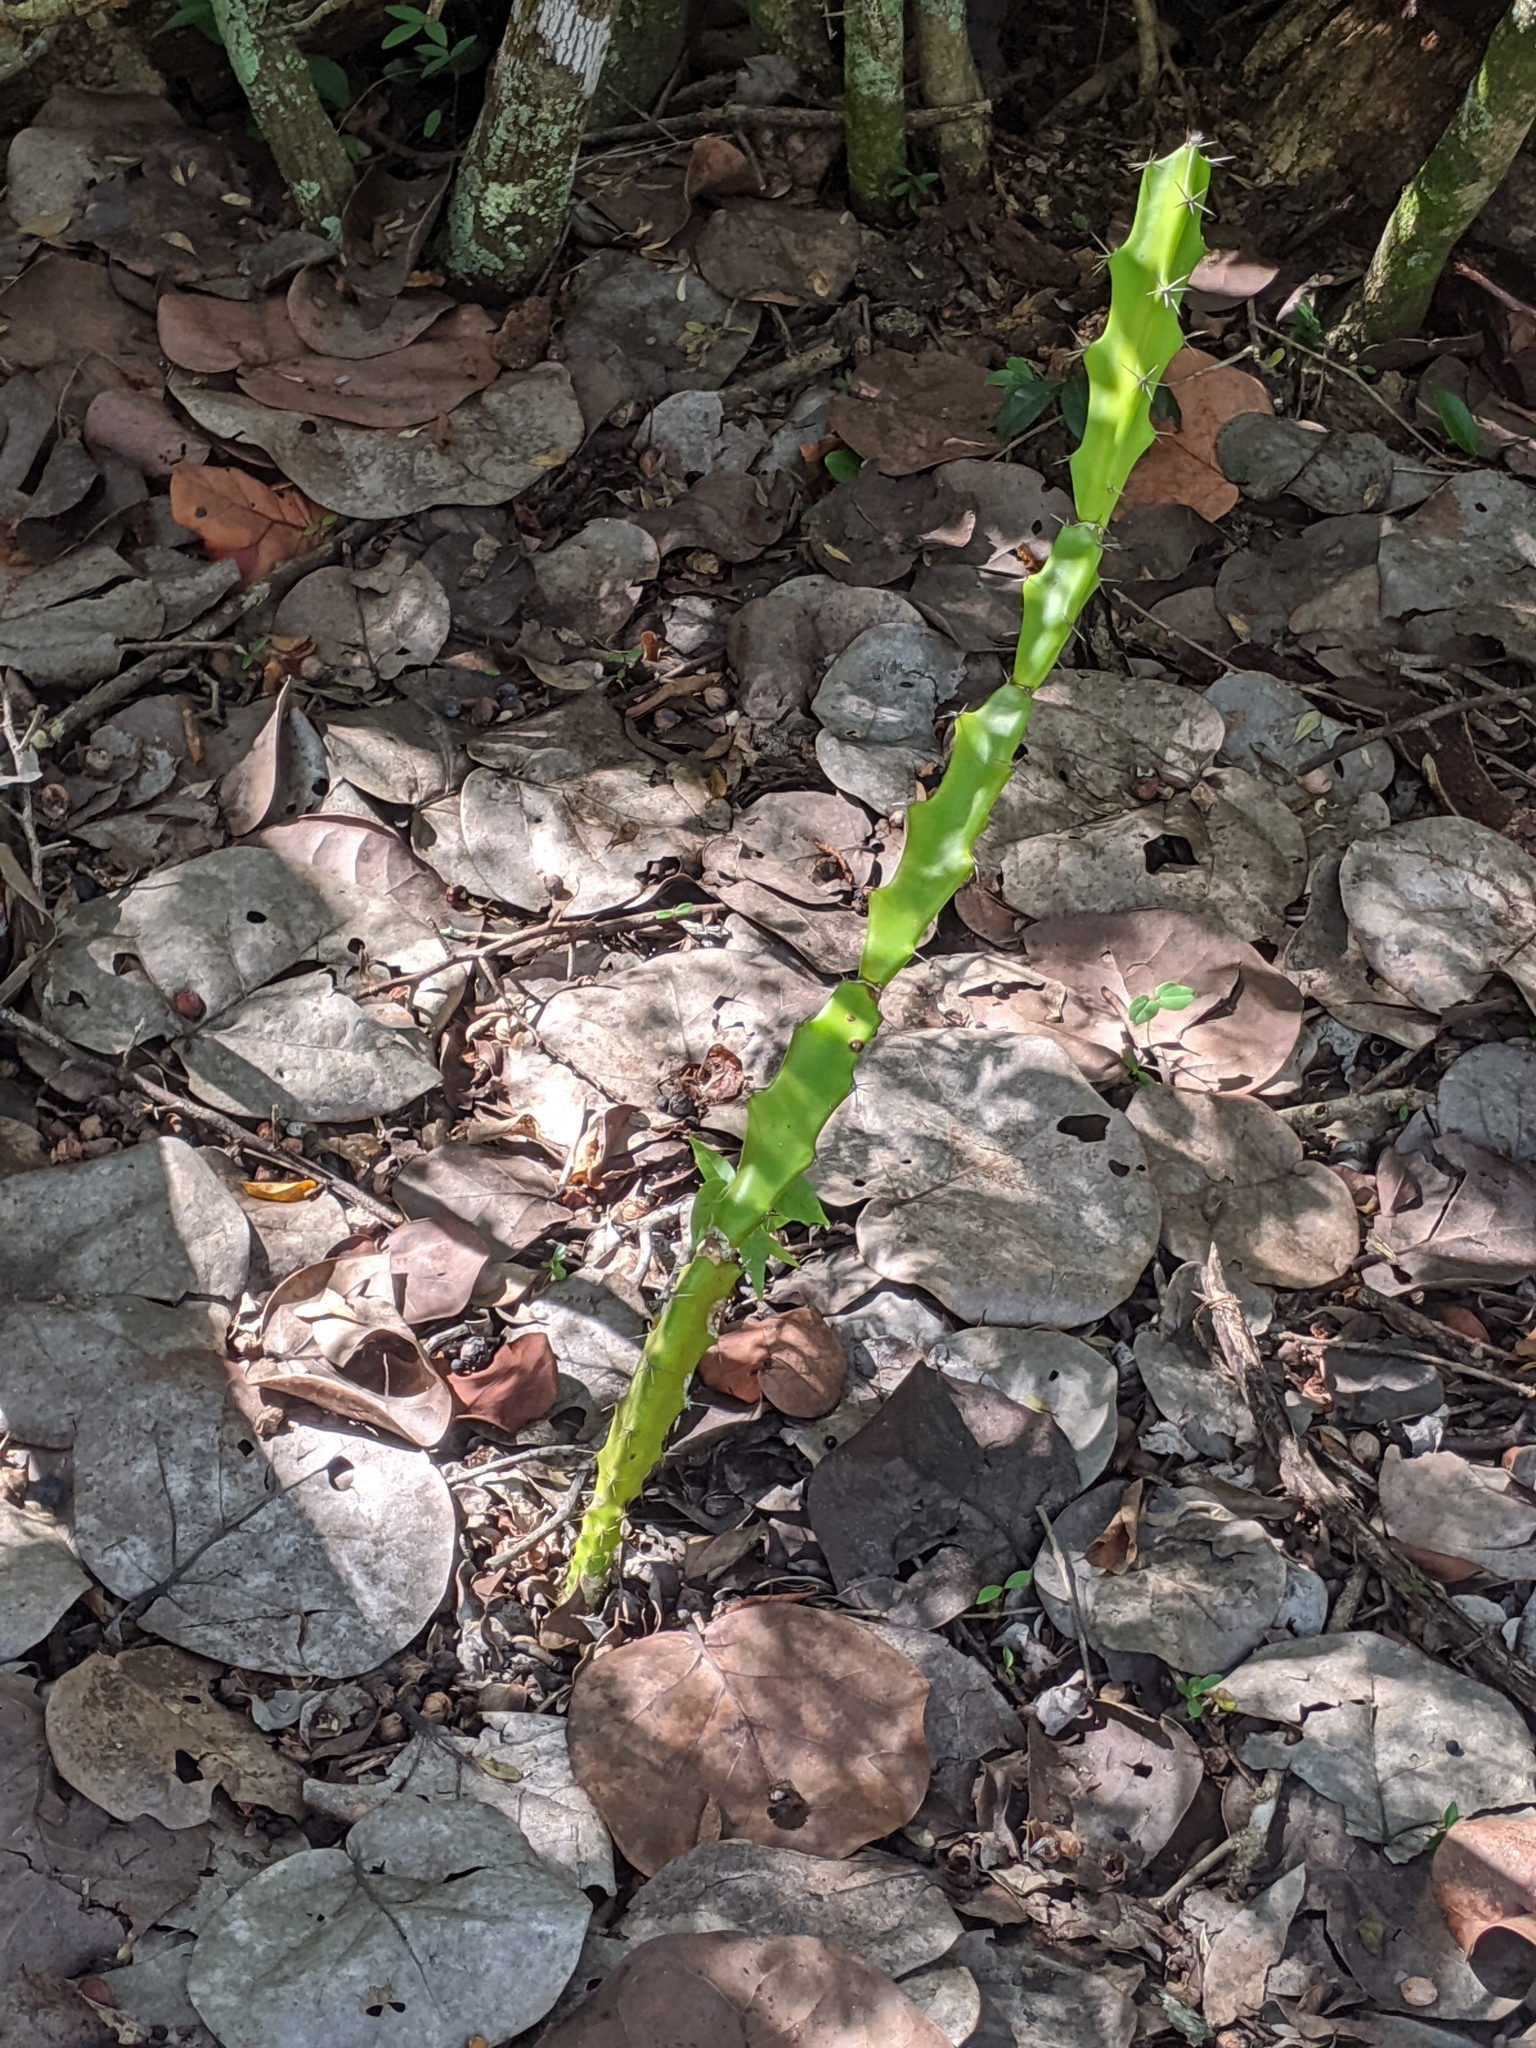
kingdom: Plantae
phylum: Tracheophyta
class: Magnoliopsida
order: Caryophyllales
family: Cactaceae
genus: Acanthocereus
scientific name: Acanthocereus tetragonus
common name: Triangle cactus
